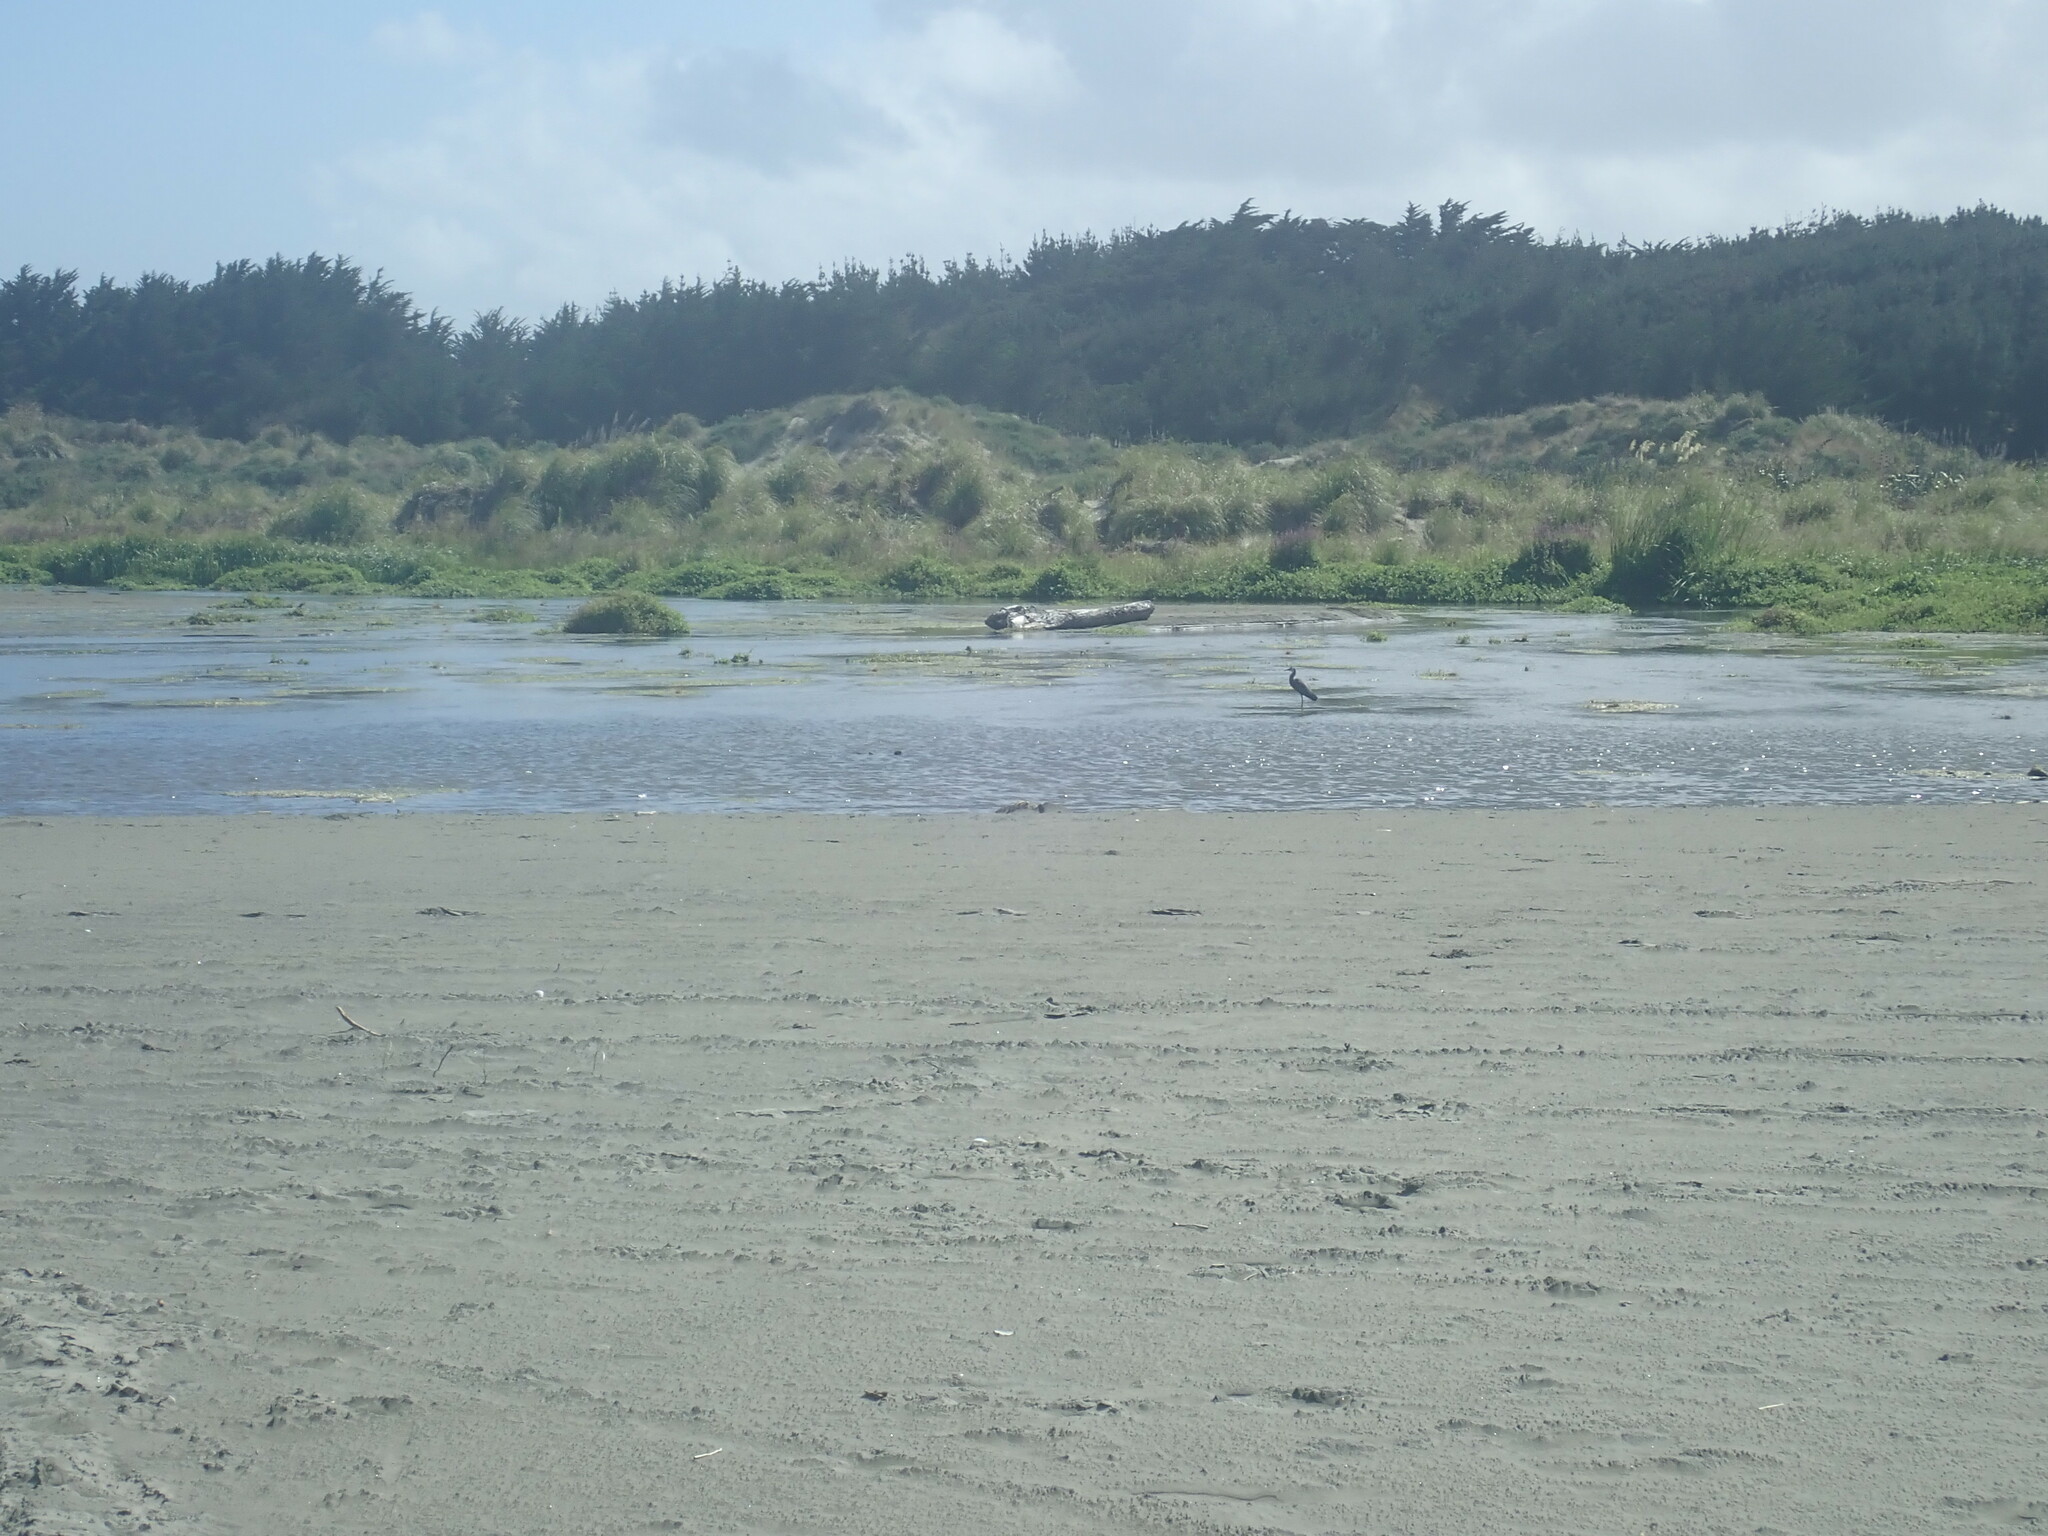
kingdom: Animalia
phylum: Chordata
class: Aves
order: Pelecaniformes
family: Ardeidae
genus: Egretta
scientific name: Egretta novaehollandiae
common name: White-faced heron
